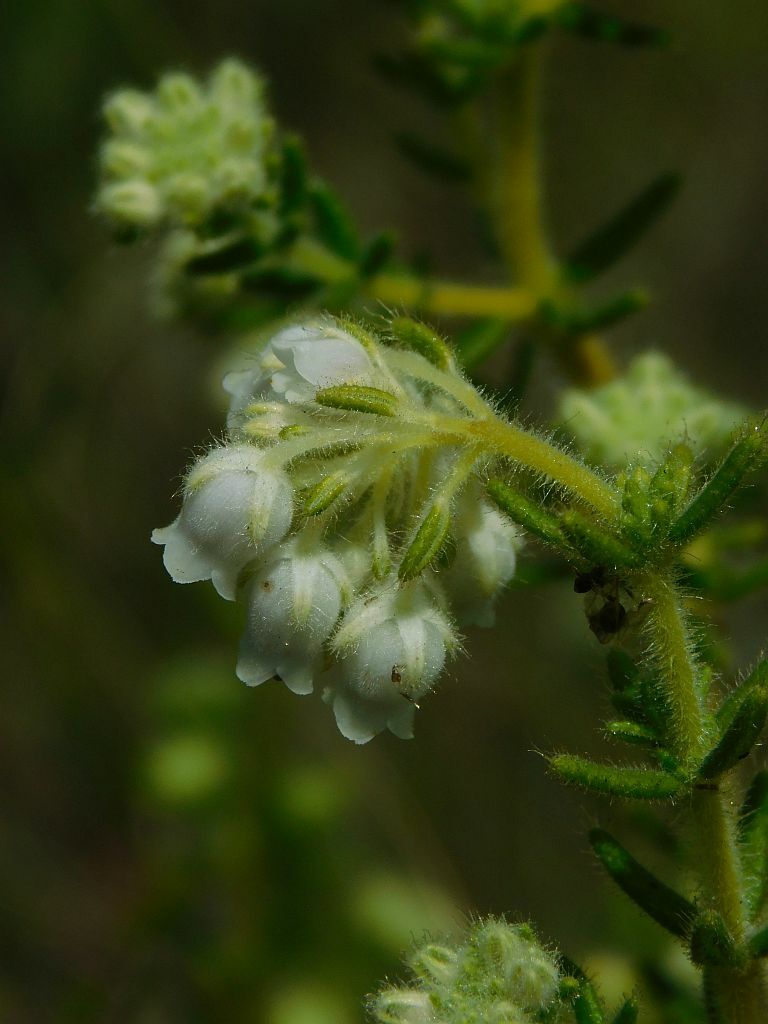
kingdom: Plantae
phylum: Tracheophyta
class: Magnoliopsida
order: Ericales
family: Ericaceae
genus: Erica
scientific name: Erica pannosa
